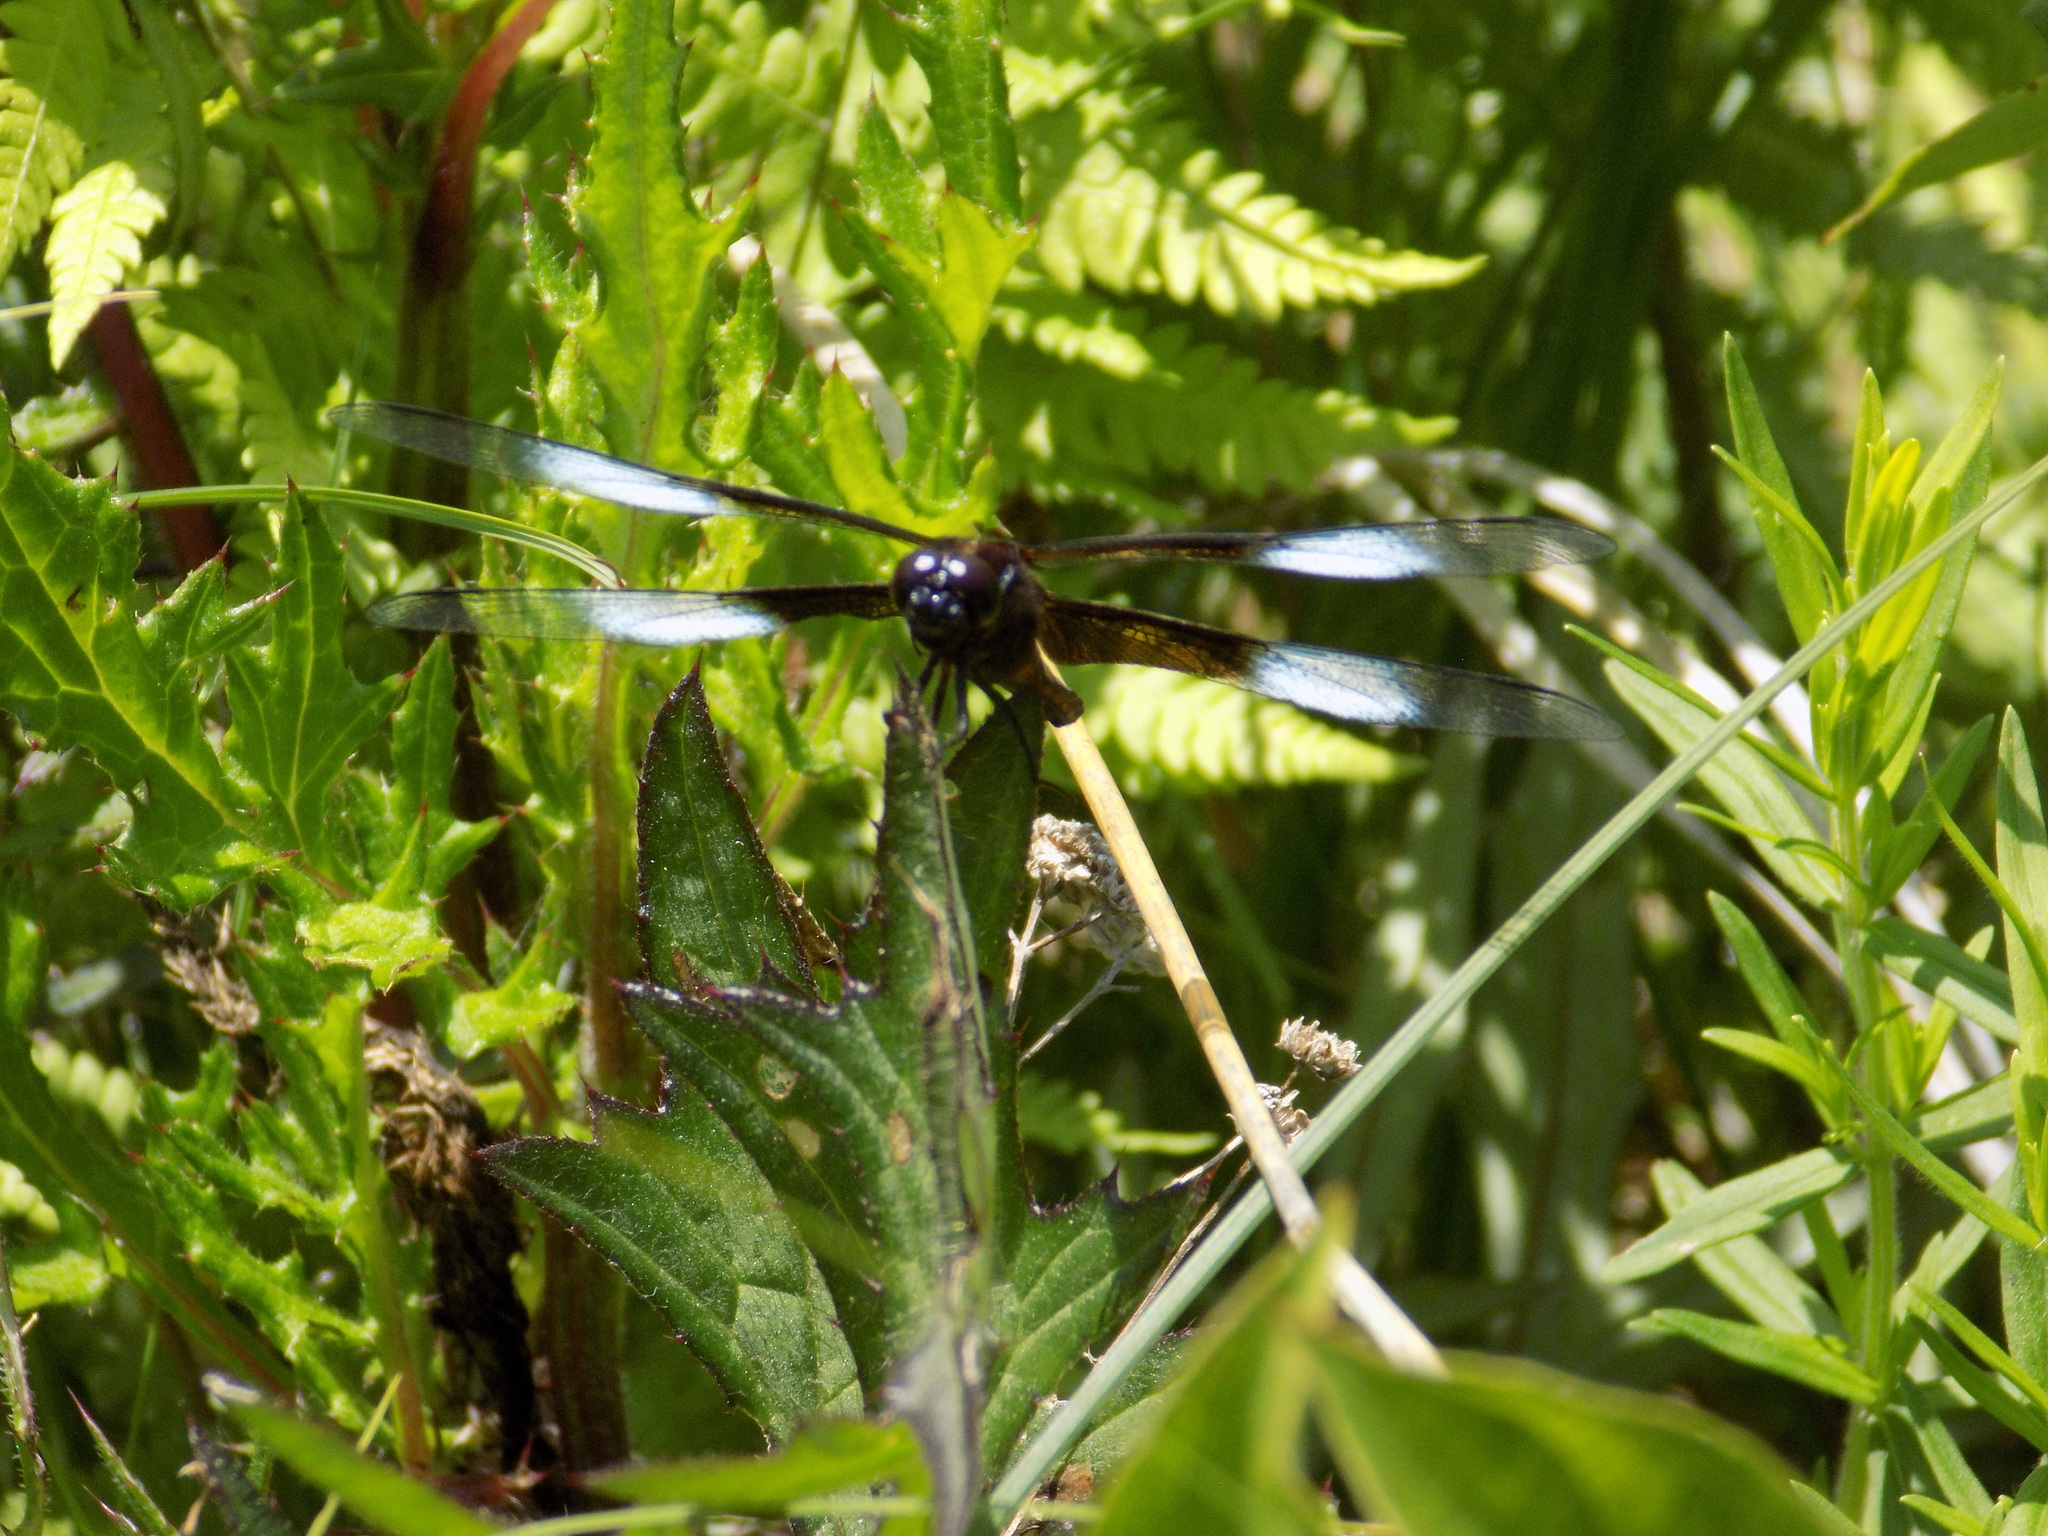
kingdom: Animalia
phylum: Arthropoda
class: Insecta
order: Odonata
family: Libellulidae
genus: Libellula
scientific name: Libellula luctuosa
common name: Widow skimmer
